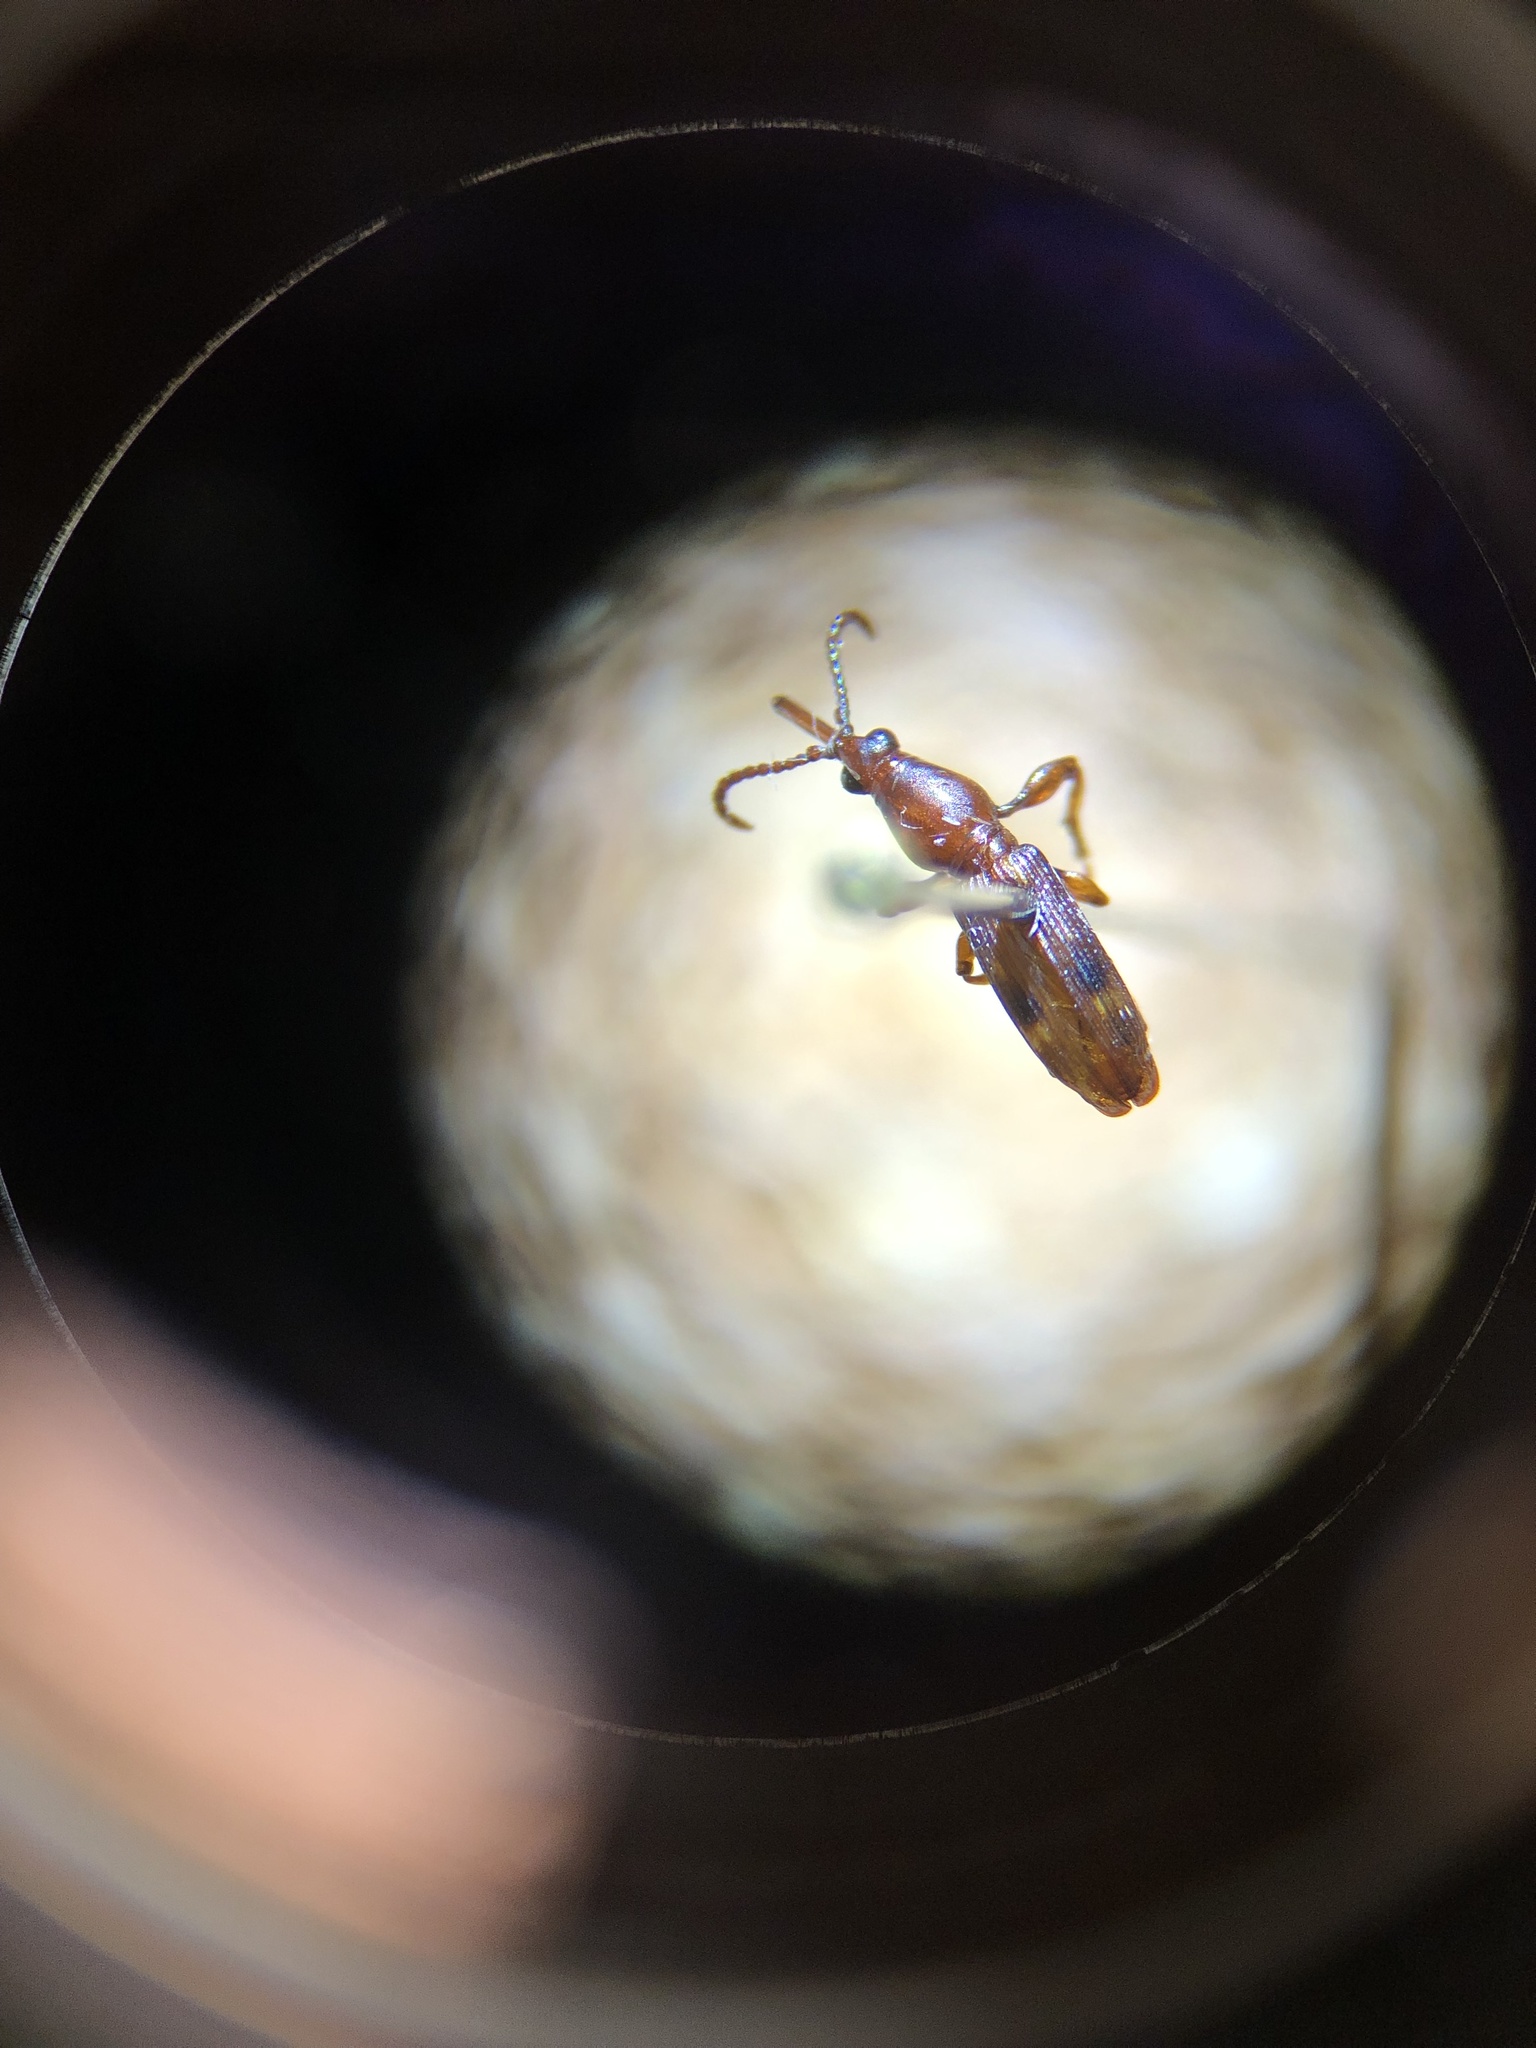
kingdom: Animalia
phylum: Arthropoda
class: Insecta
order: Coleoptera
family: Brentidae
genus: Arrenodes
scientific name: Arrenodes minutus
